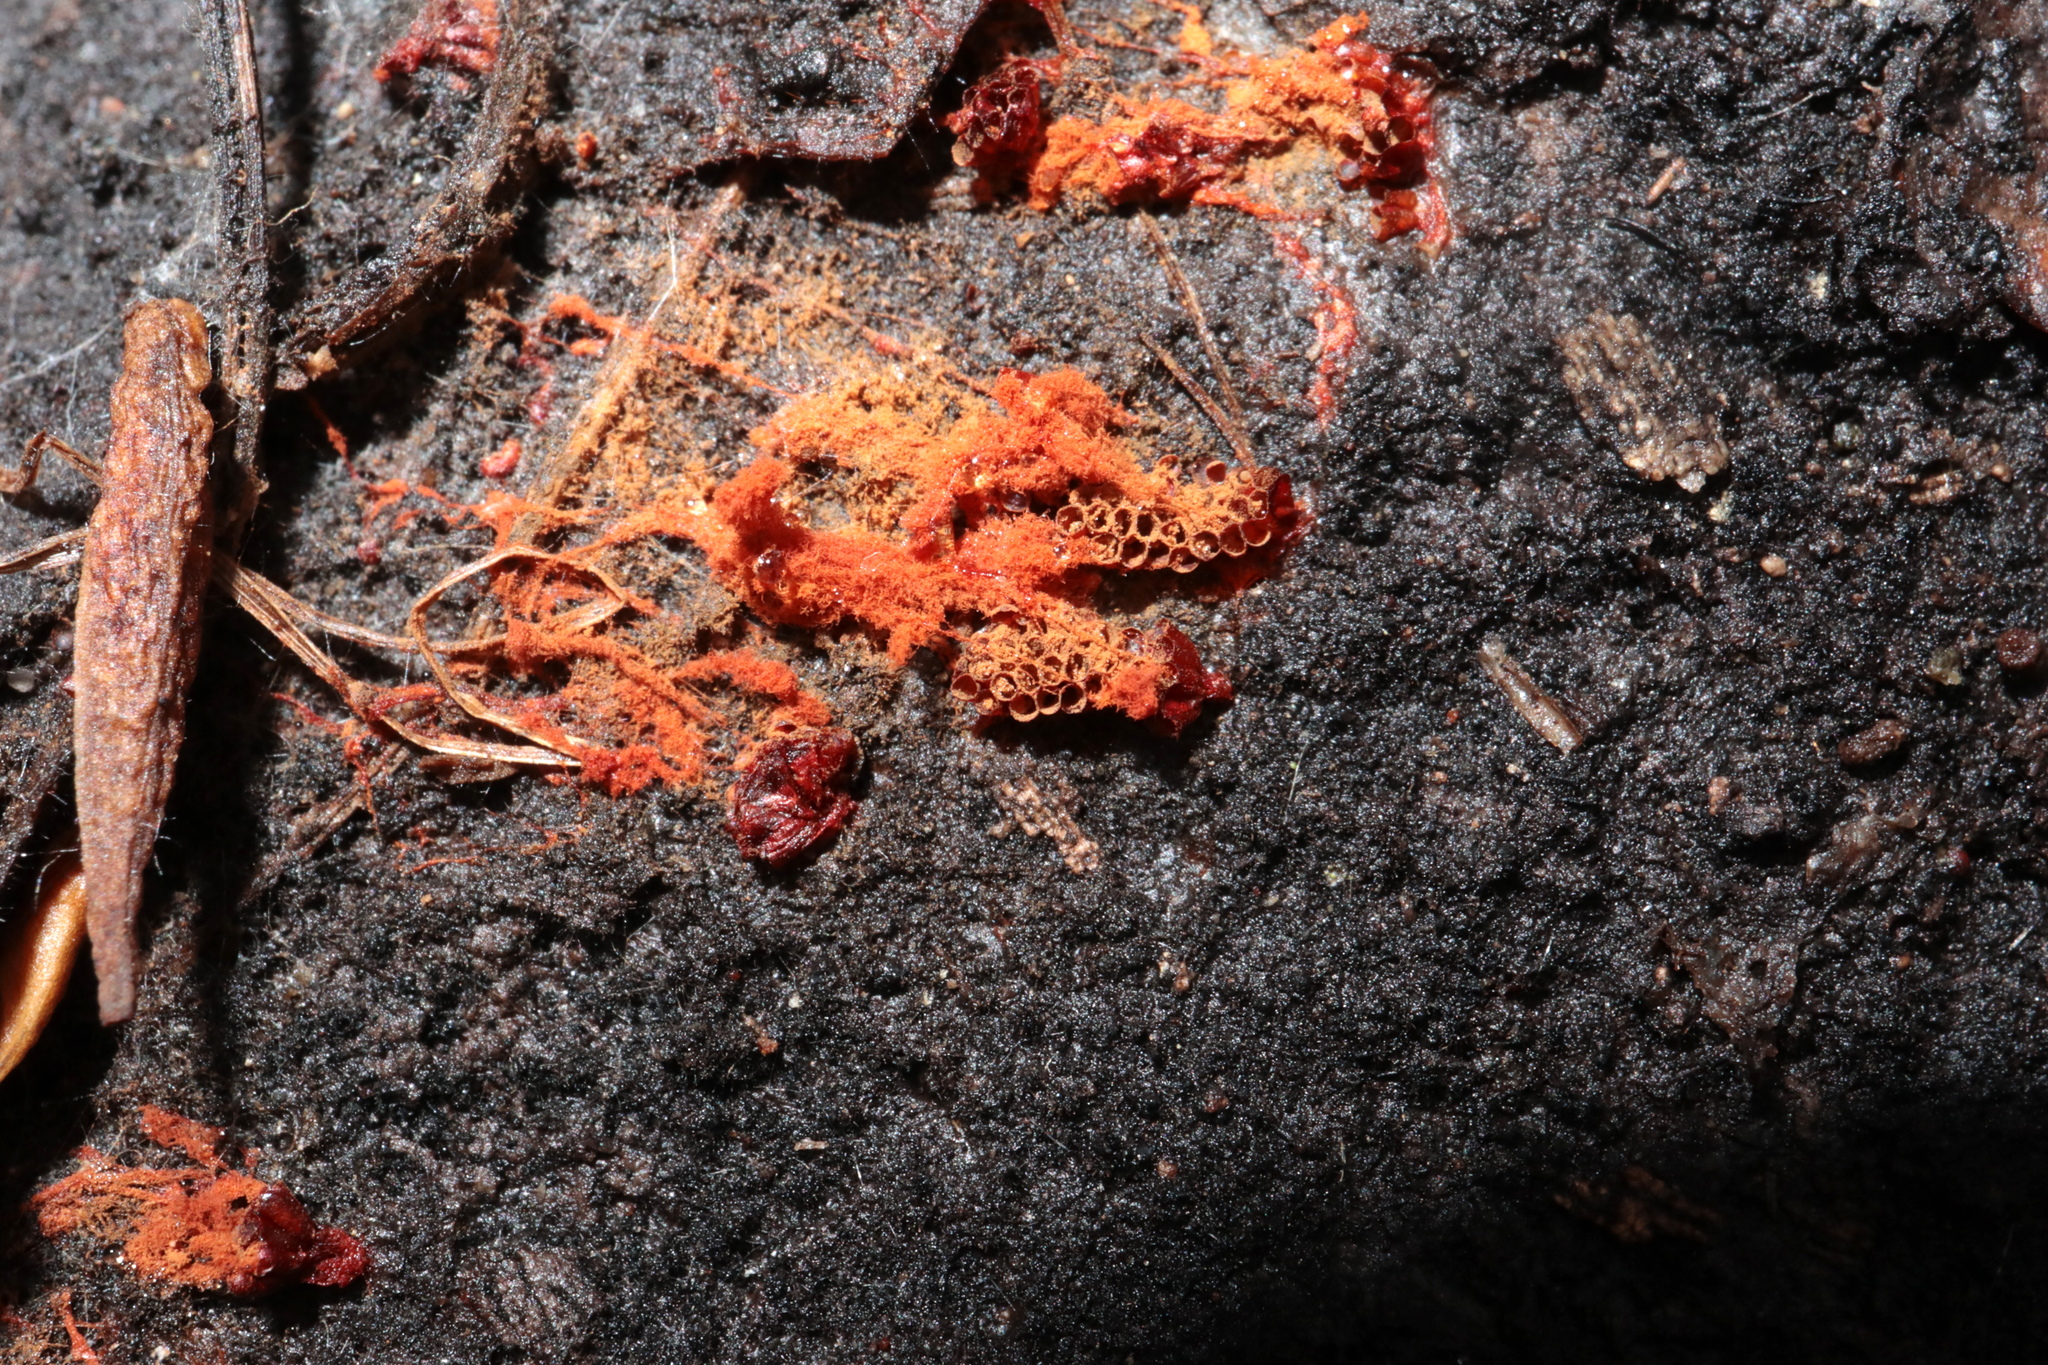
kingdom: Protozoa
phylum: Mycetozoa
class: Myxomycetes
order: Trichiales
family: Trichiaceae
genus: Metatrichia
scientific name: Metatrichia vesparia
